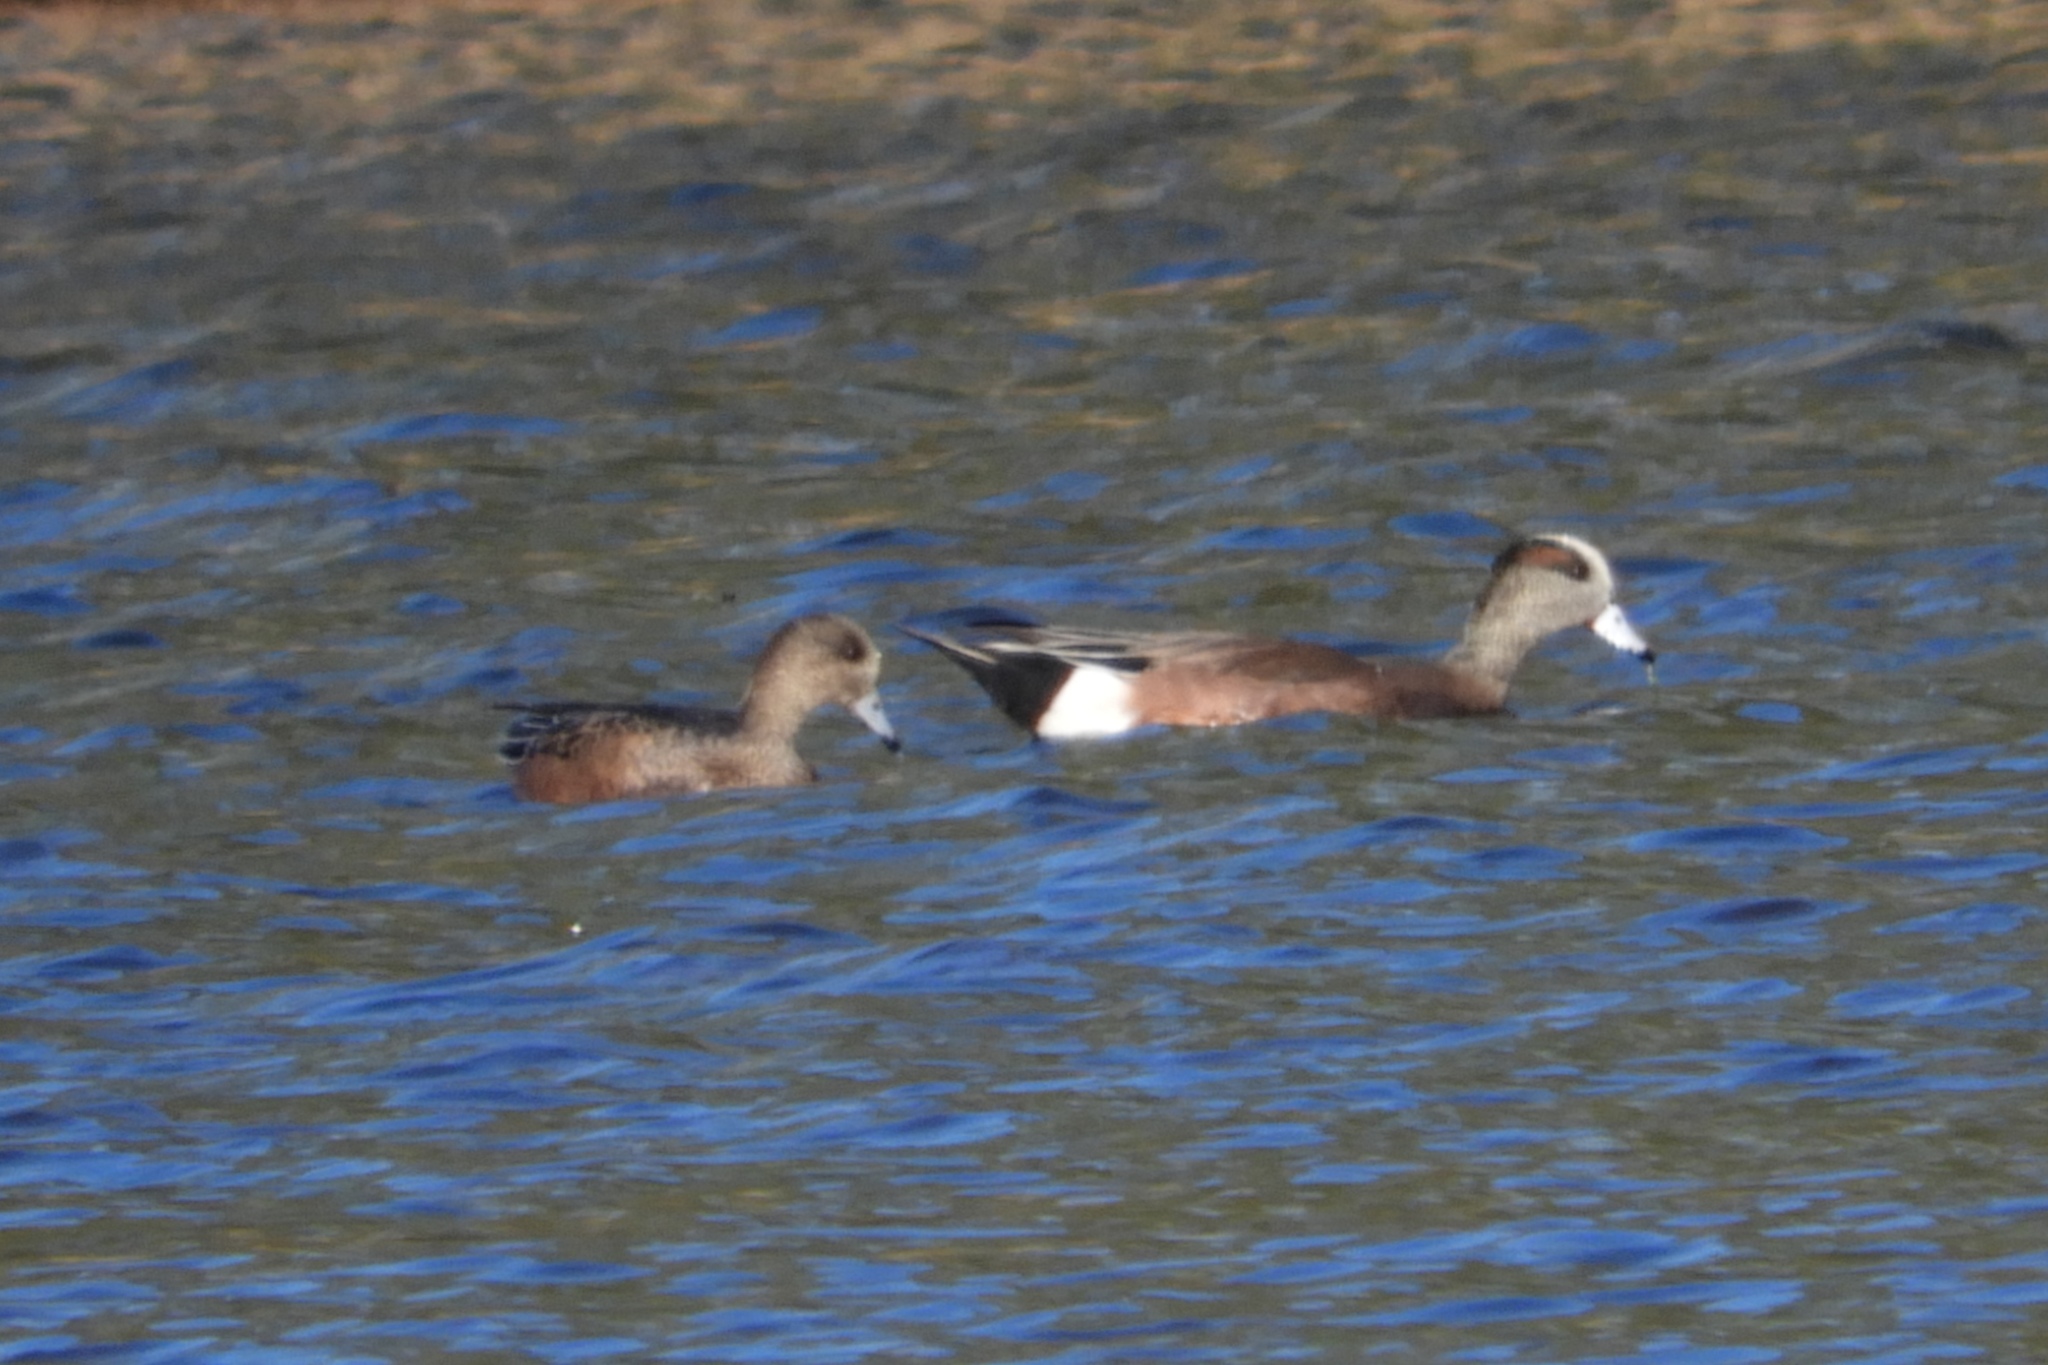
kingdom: Animalia
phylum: Chordata
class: Aves
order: Anseriformes
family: Anatidae
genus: Mareca
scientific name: Mareca americana
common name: American wigeon
